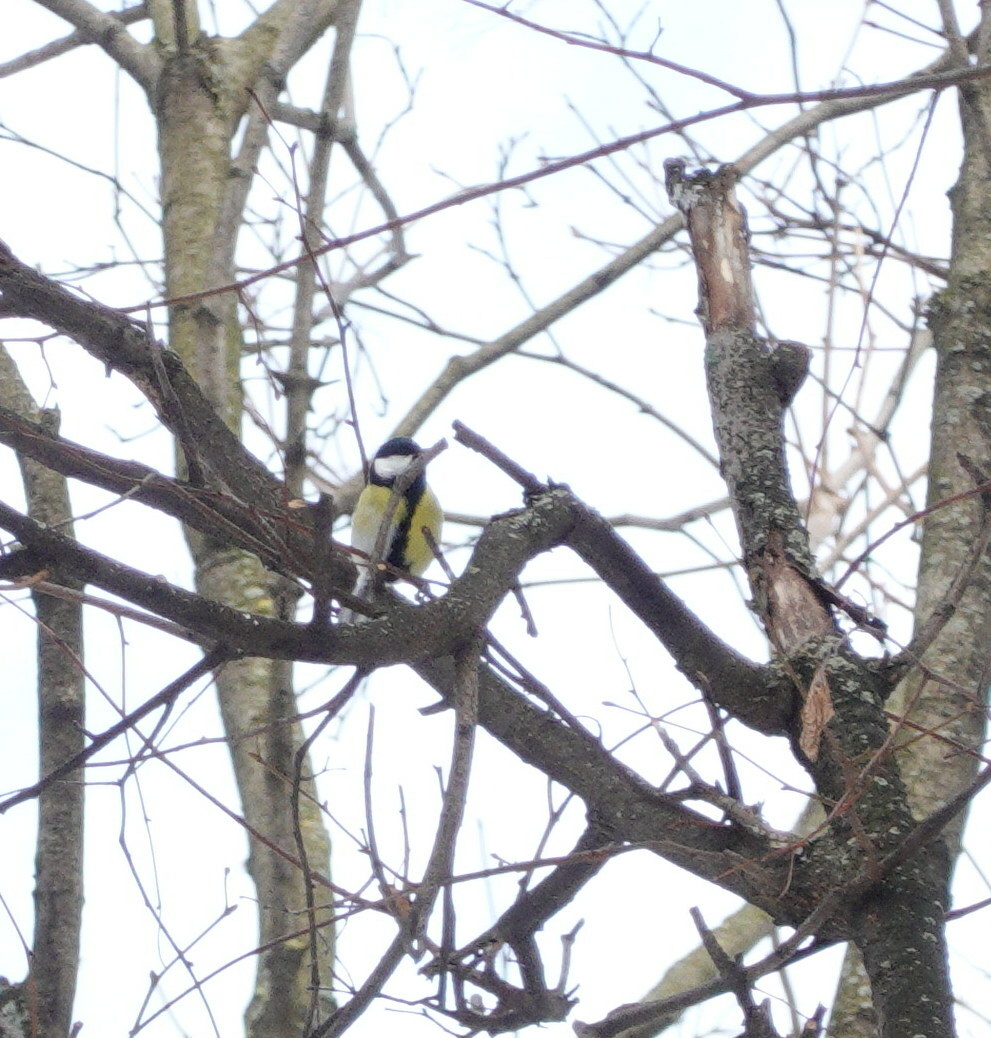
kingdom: Animalia
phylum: Chordata
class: Aves
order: Passeriformes
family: Paridae
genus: Parus
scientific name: Parus major
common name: Great tit
